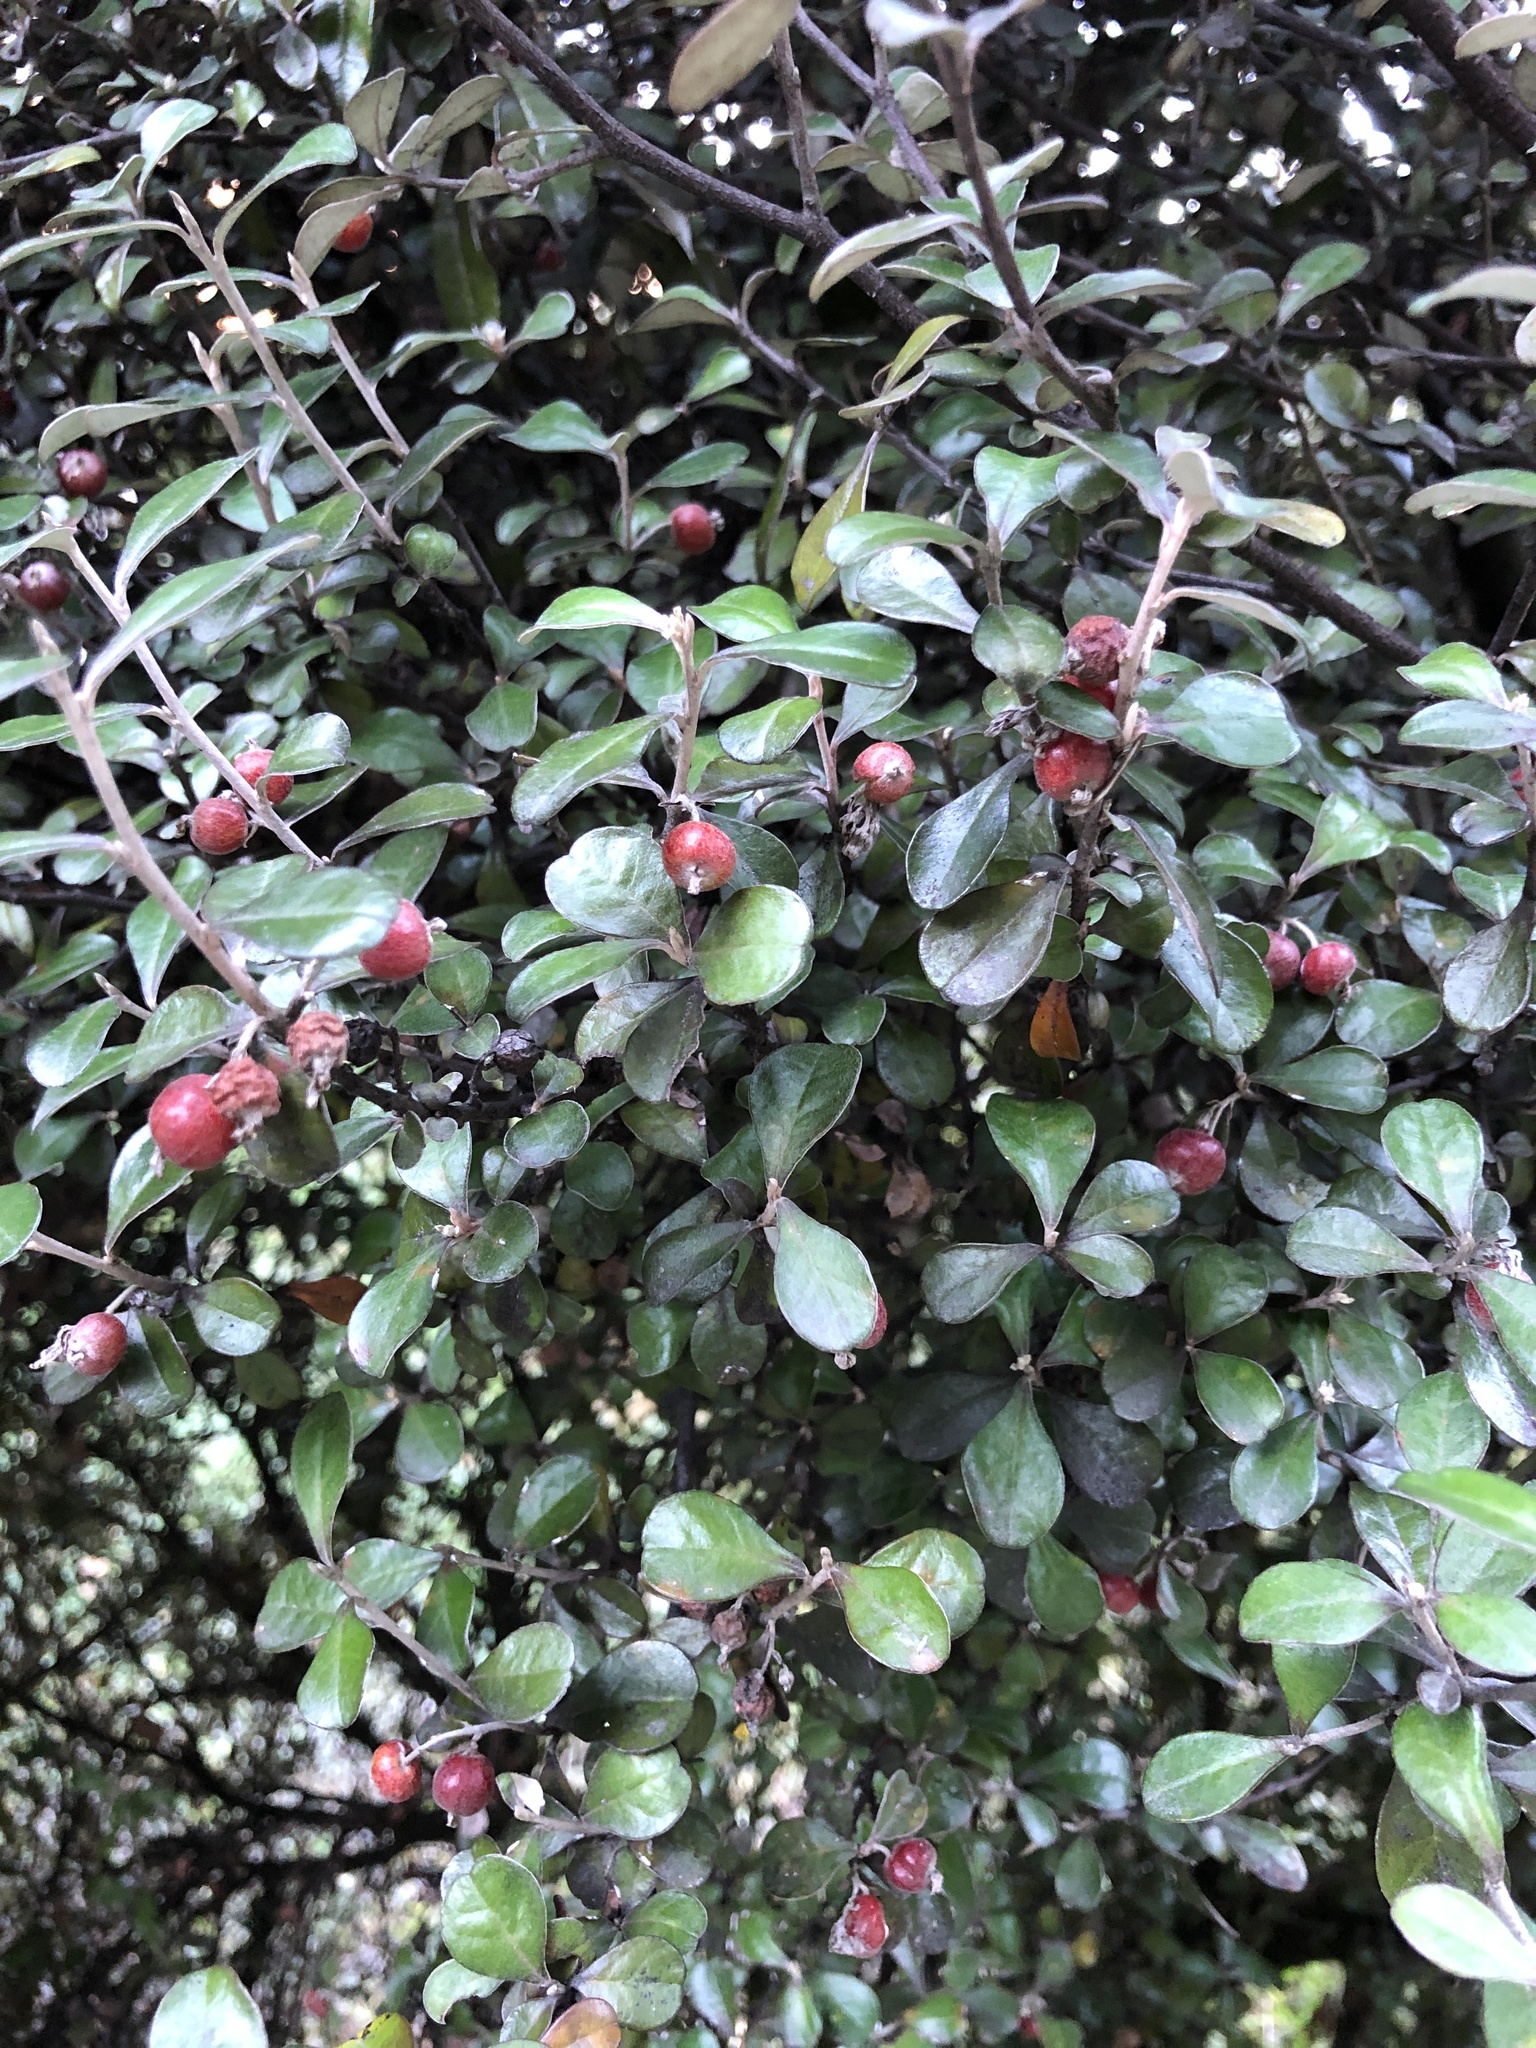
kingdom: Plantae
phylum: Tracheophyta
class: Magnoliopsida
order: Asterales
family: Argophyllaceae
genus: Corokia
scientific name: Corokia cotoneaster
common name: Wire nettingbush
